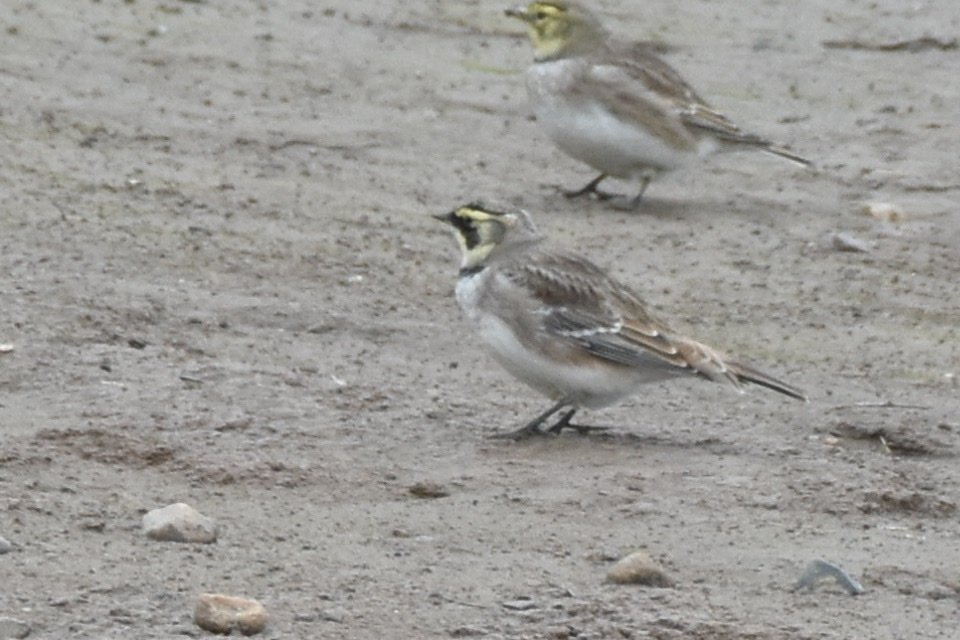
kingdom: Animalia
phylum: Chordata
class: Aves
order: Passeriformes
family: Alaudidae
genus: Eremophila
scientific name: Eremophila alpestris
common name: Horned lark
